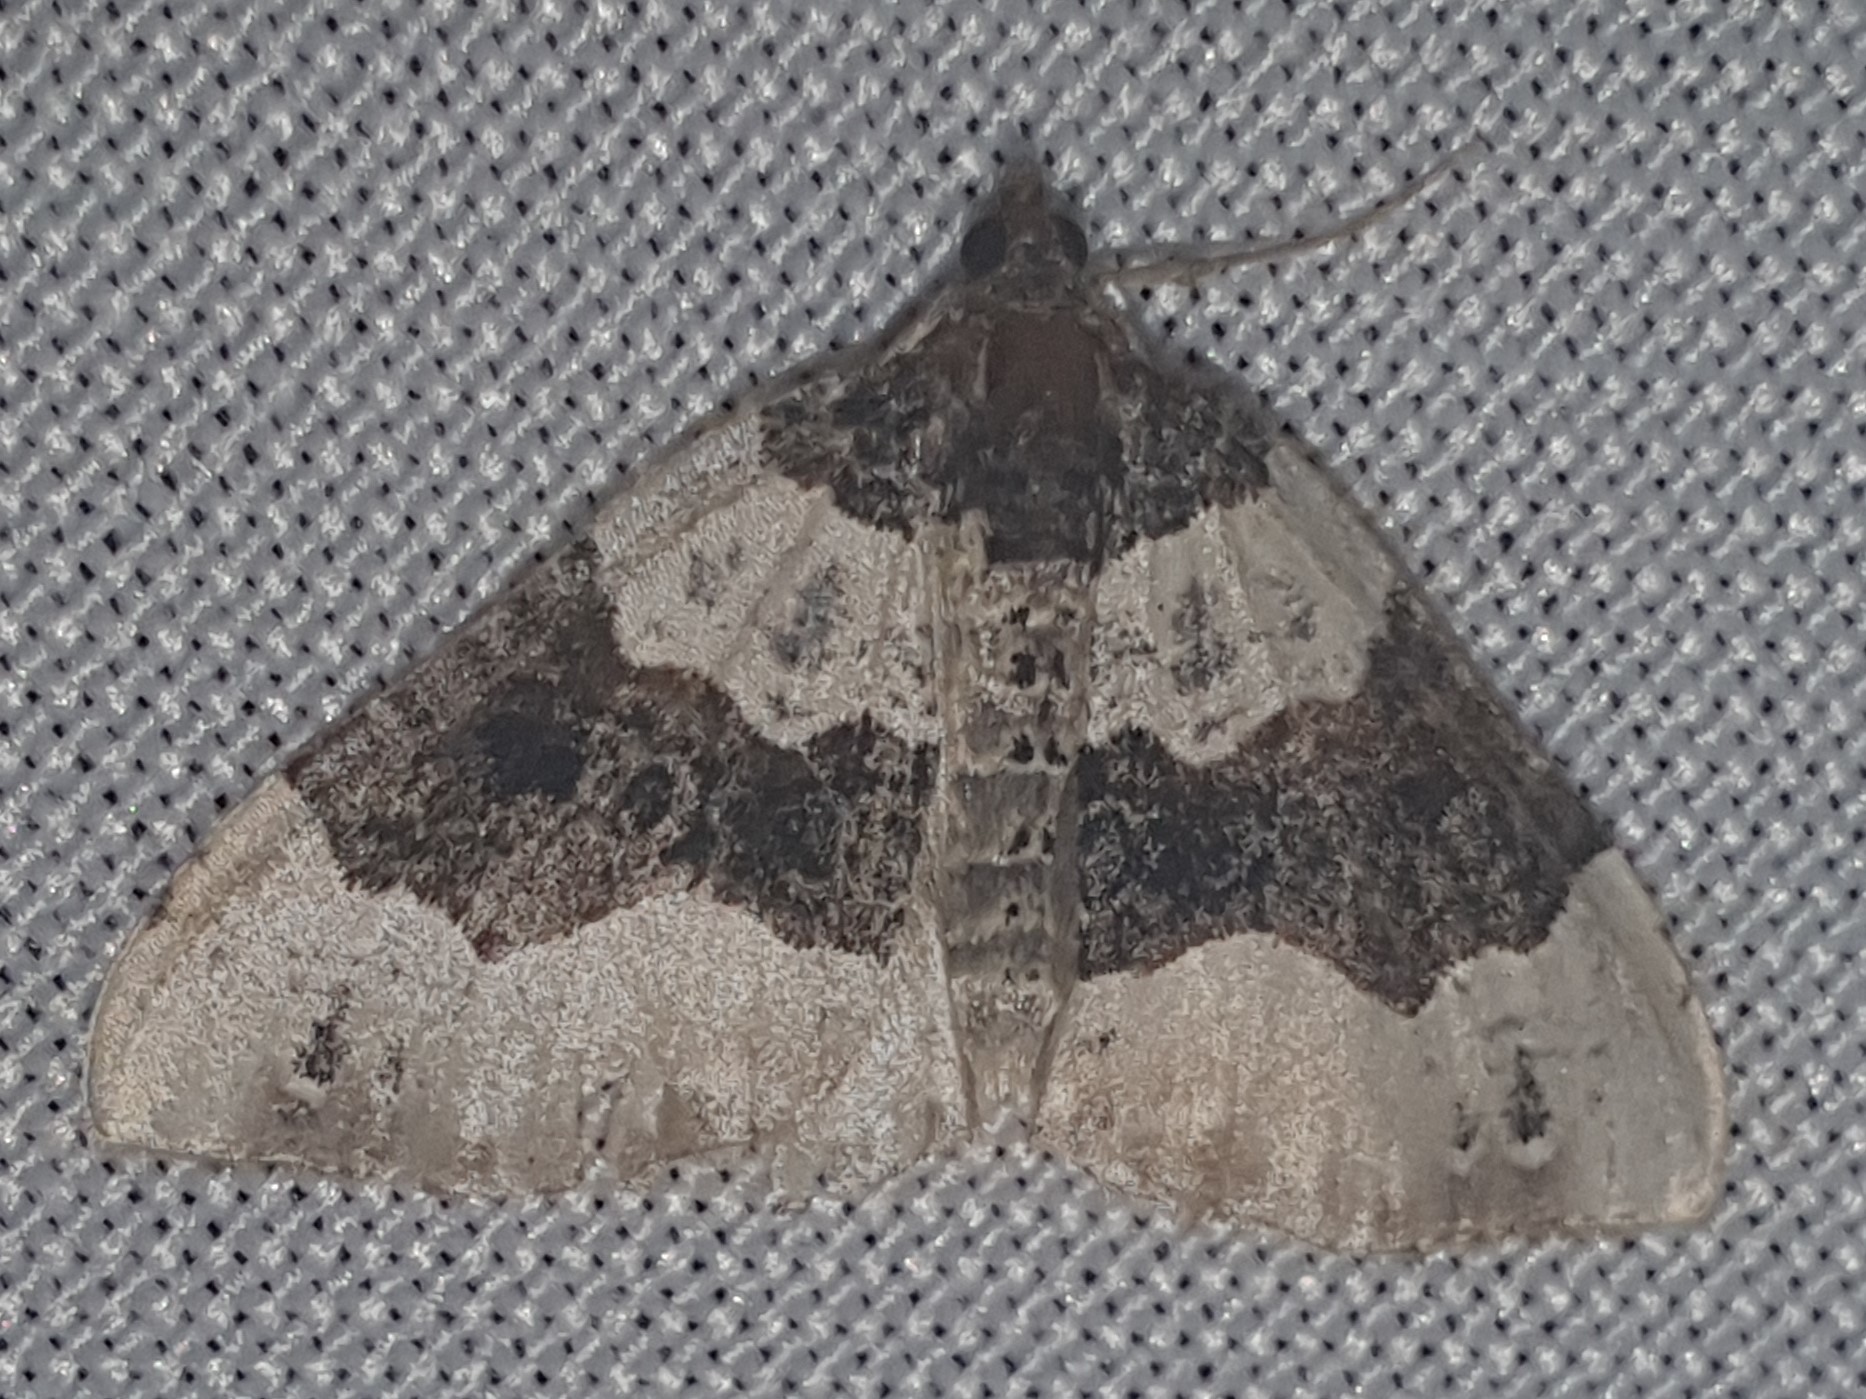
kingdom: Animalia
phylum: Arthropoda
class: Insecta
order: Lepidoptera
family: Geometridae
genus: Cosmorhoe
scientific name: Cosmorhoe ocellata
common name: Purple bar
